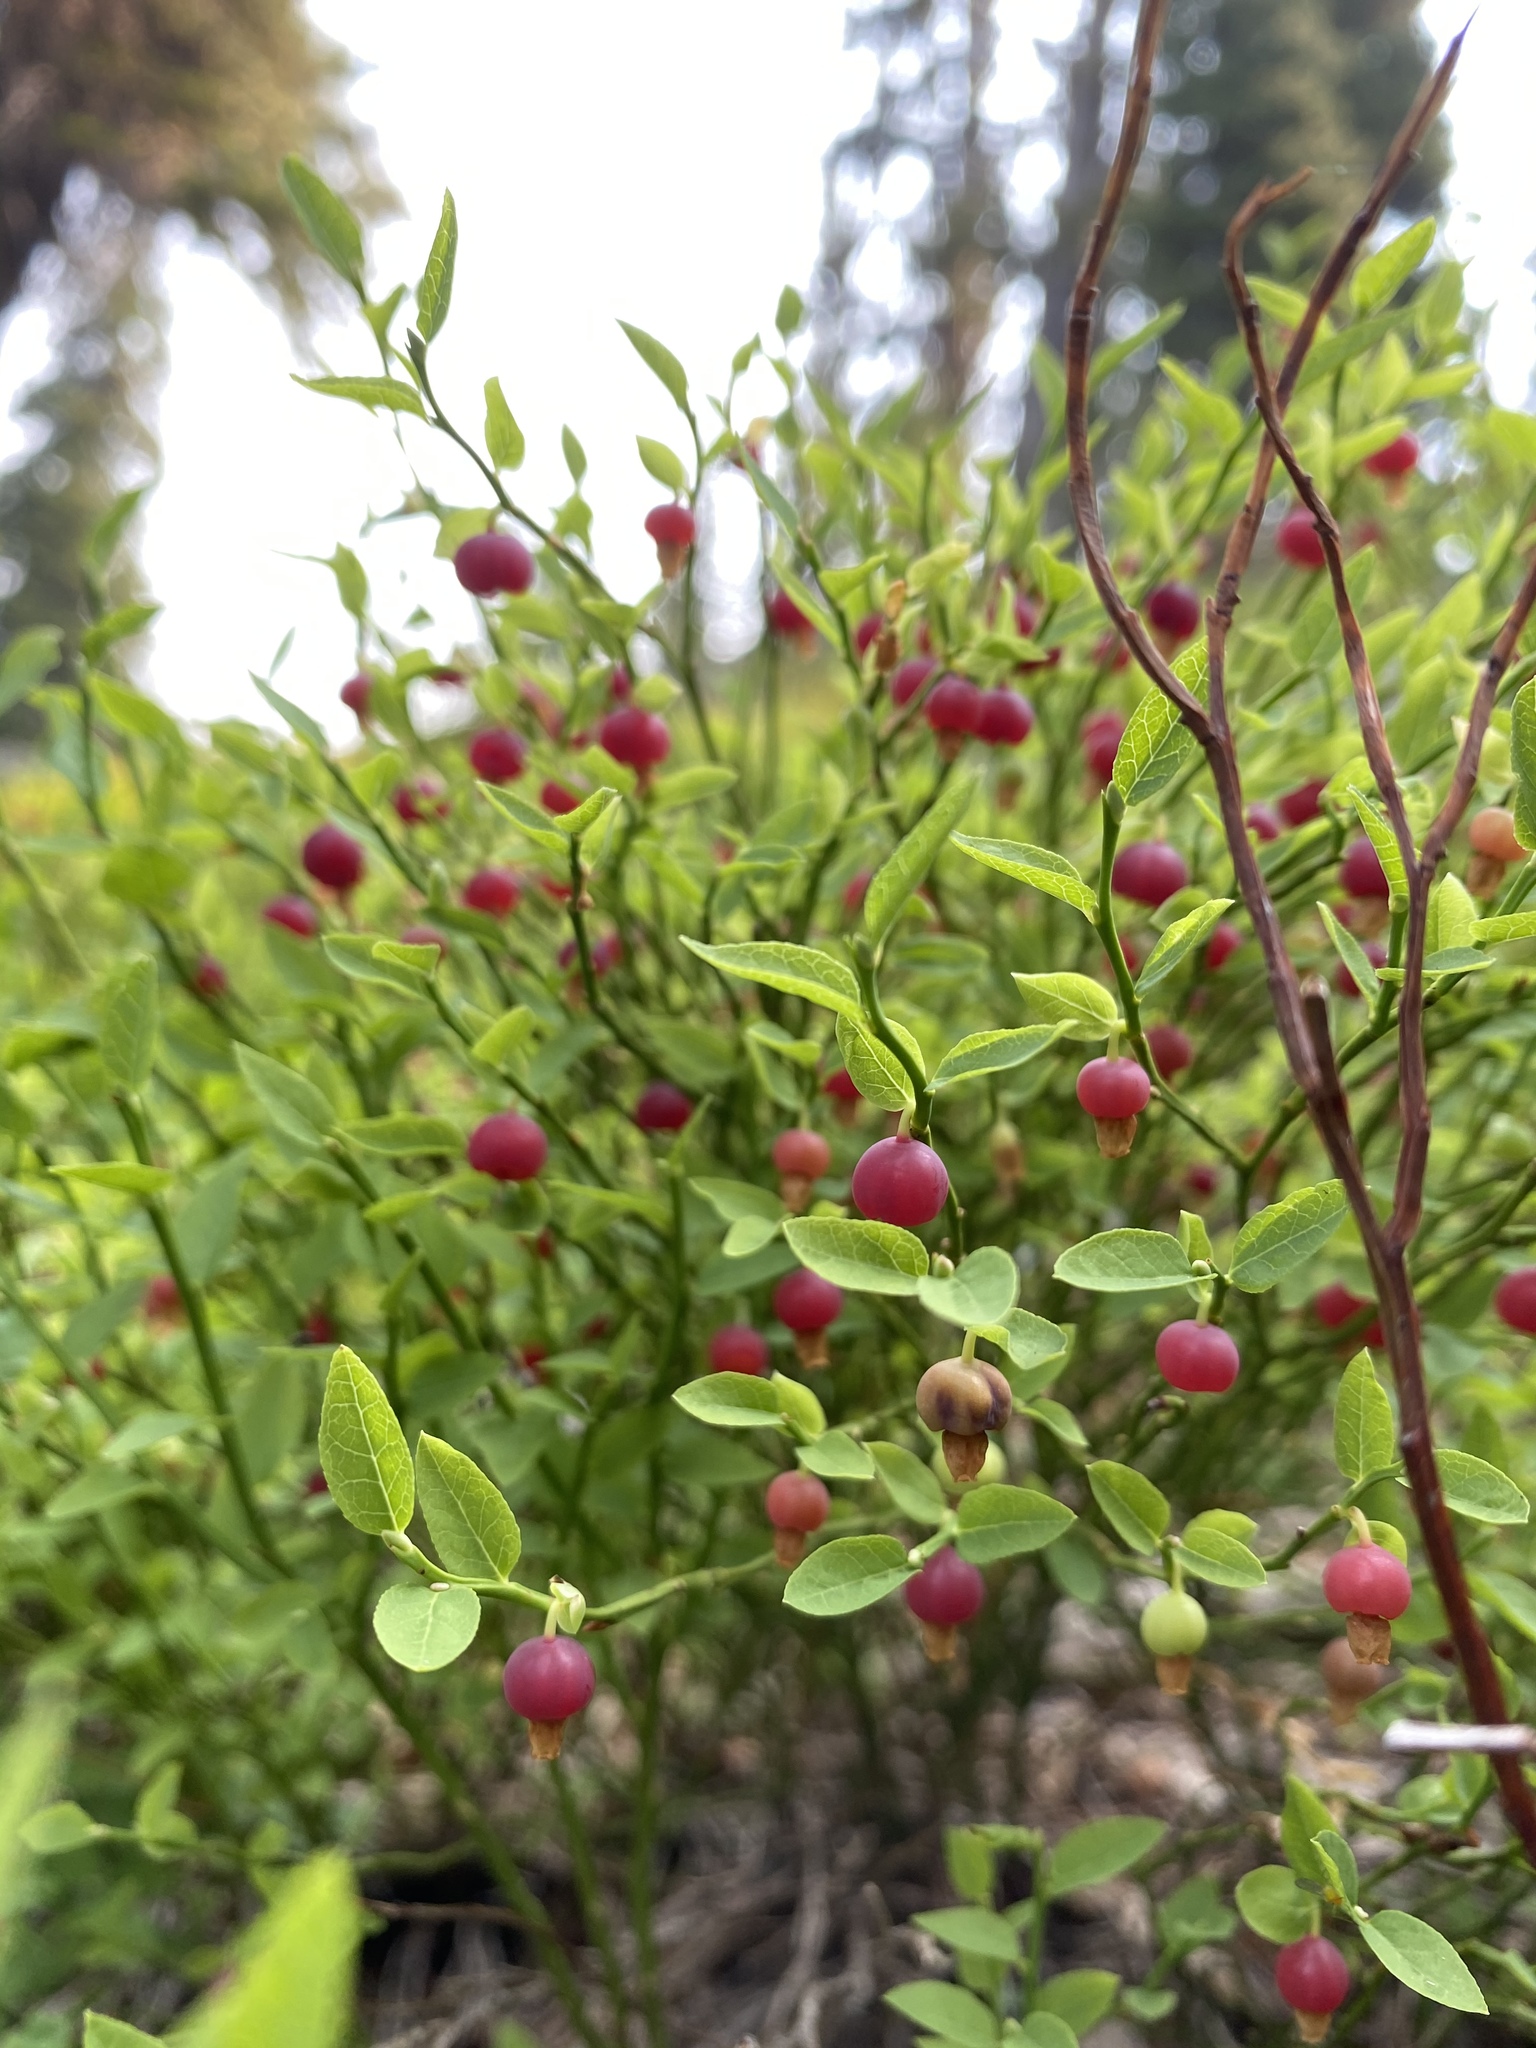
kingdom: Plantae
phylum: Tracheophyta
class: Magnoliopsida
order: Ericales
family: Ericaceae
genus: Vaccinium
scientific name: Vaccinium scoparium
